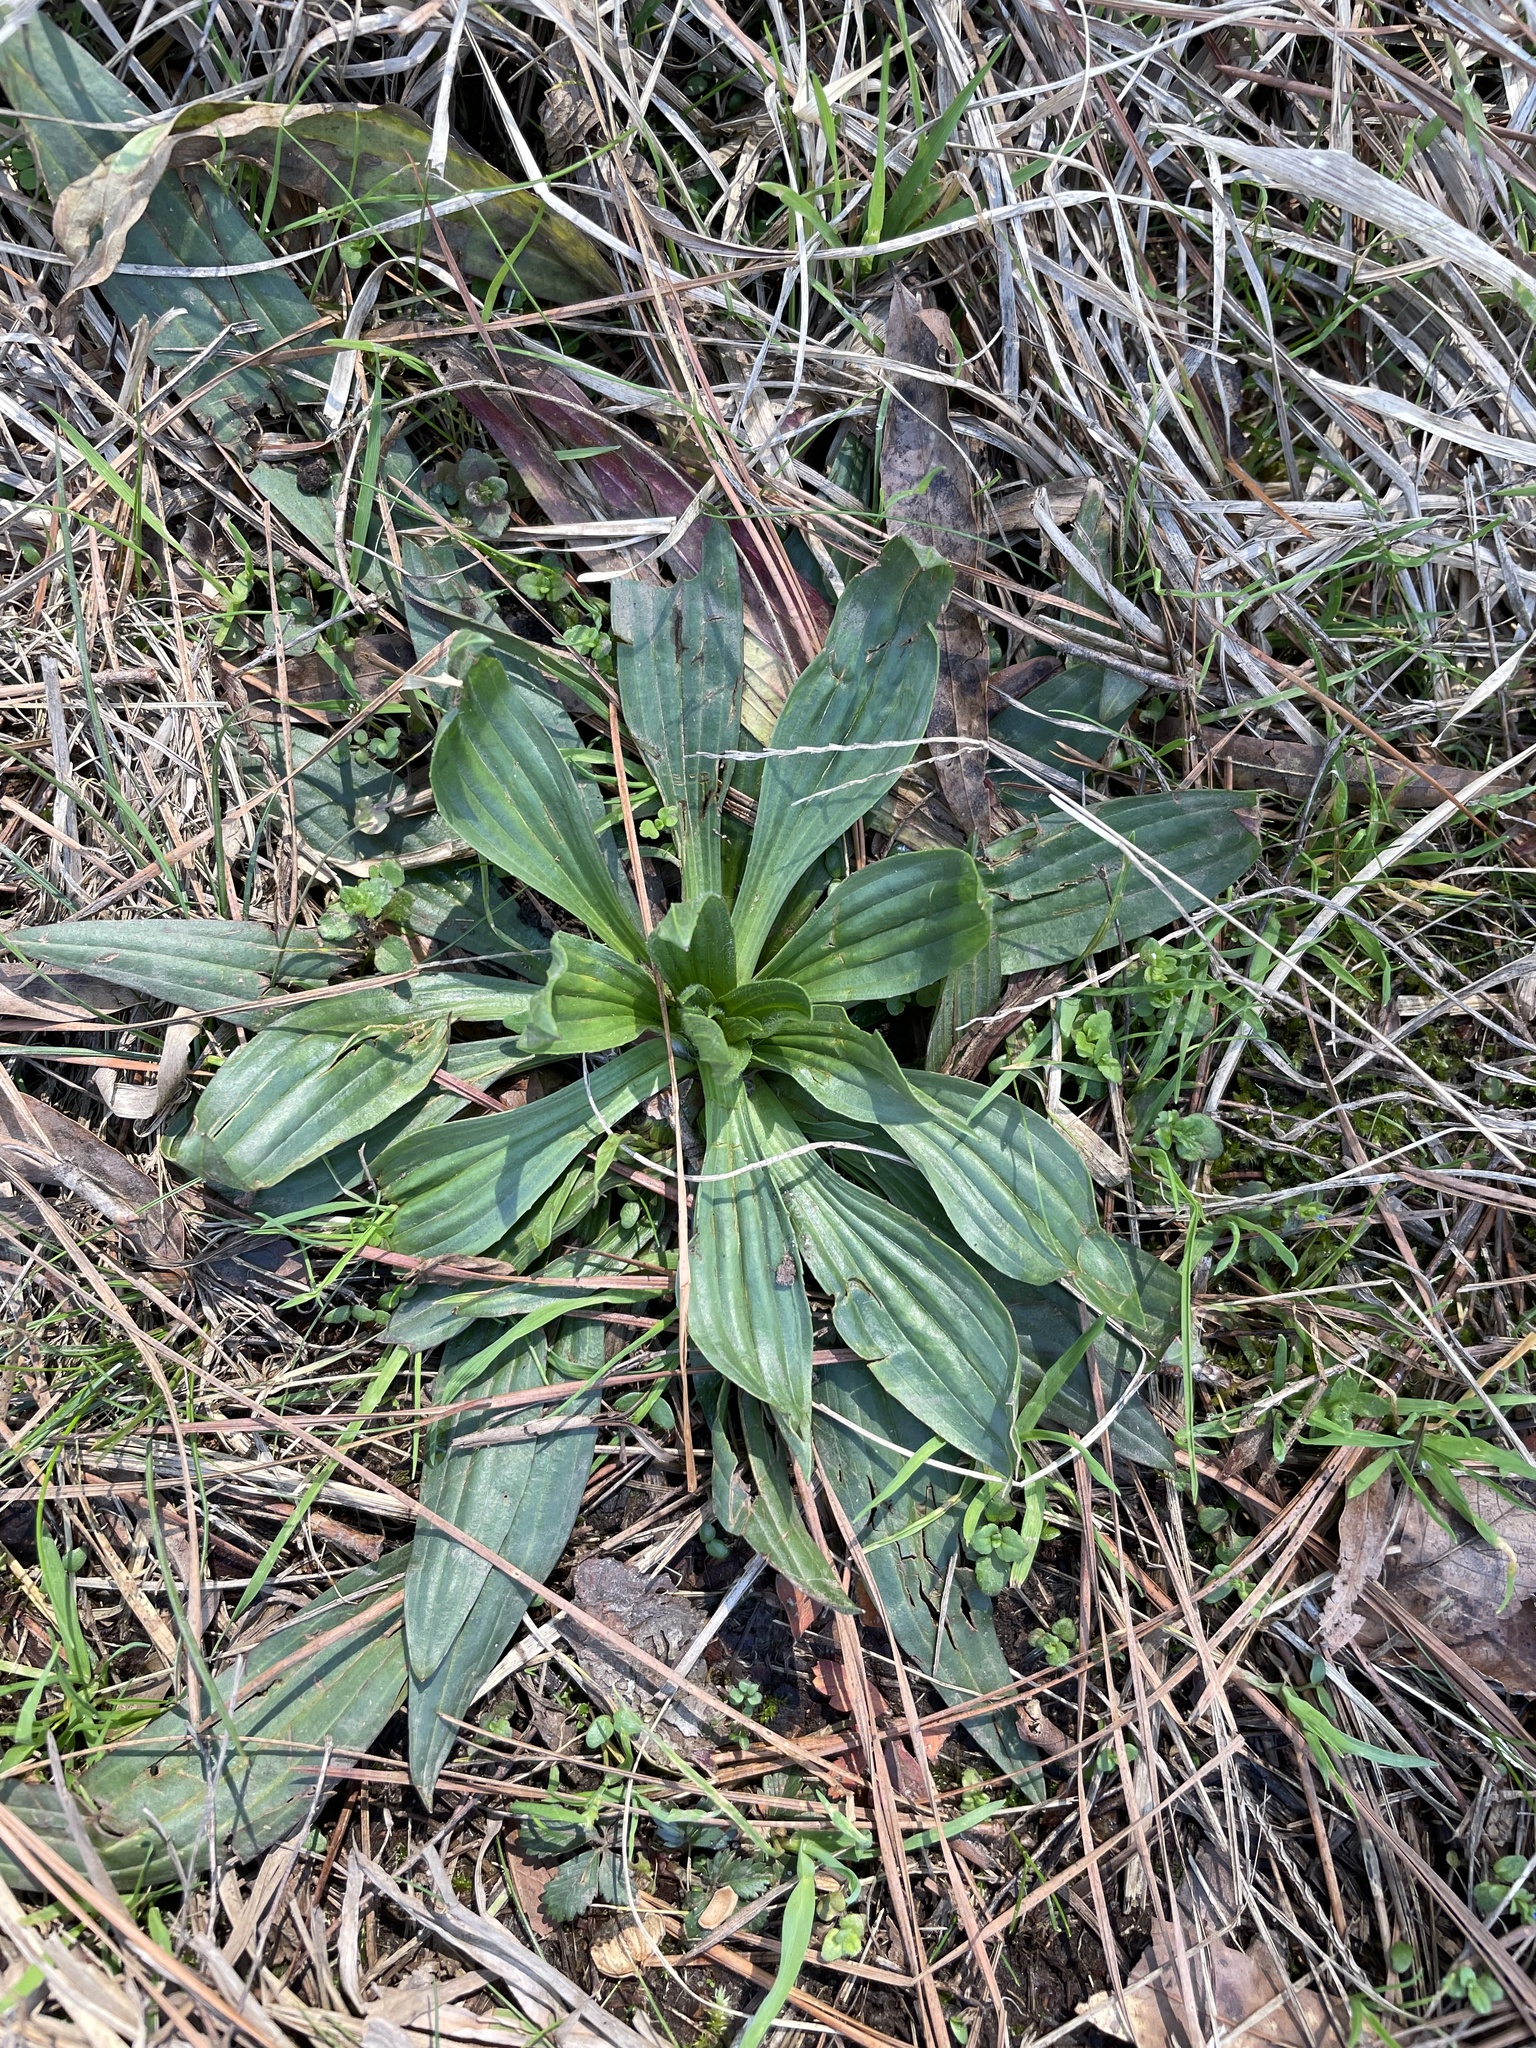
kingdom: Plantae
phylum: Tracheophyta
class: Magnoliopsida
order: Lamiales
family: Plantaginaceae
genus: Plantago
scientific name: Plantago lanceolata
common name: Ribwort plantain
